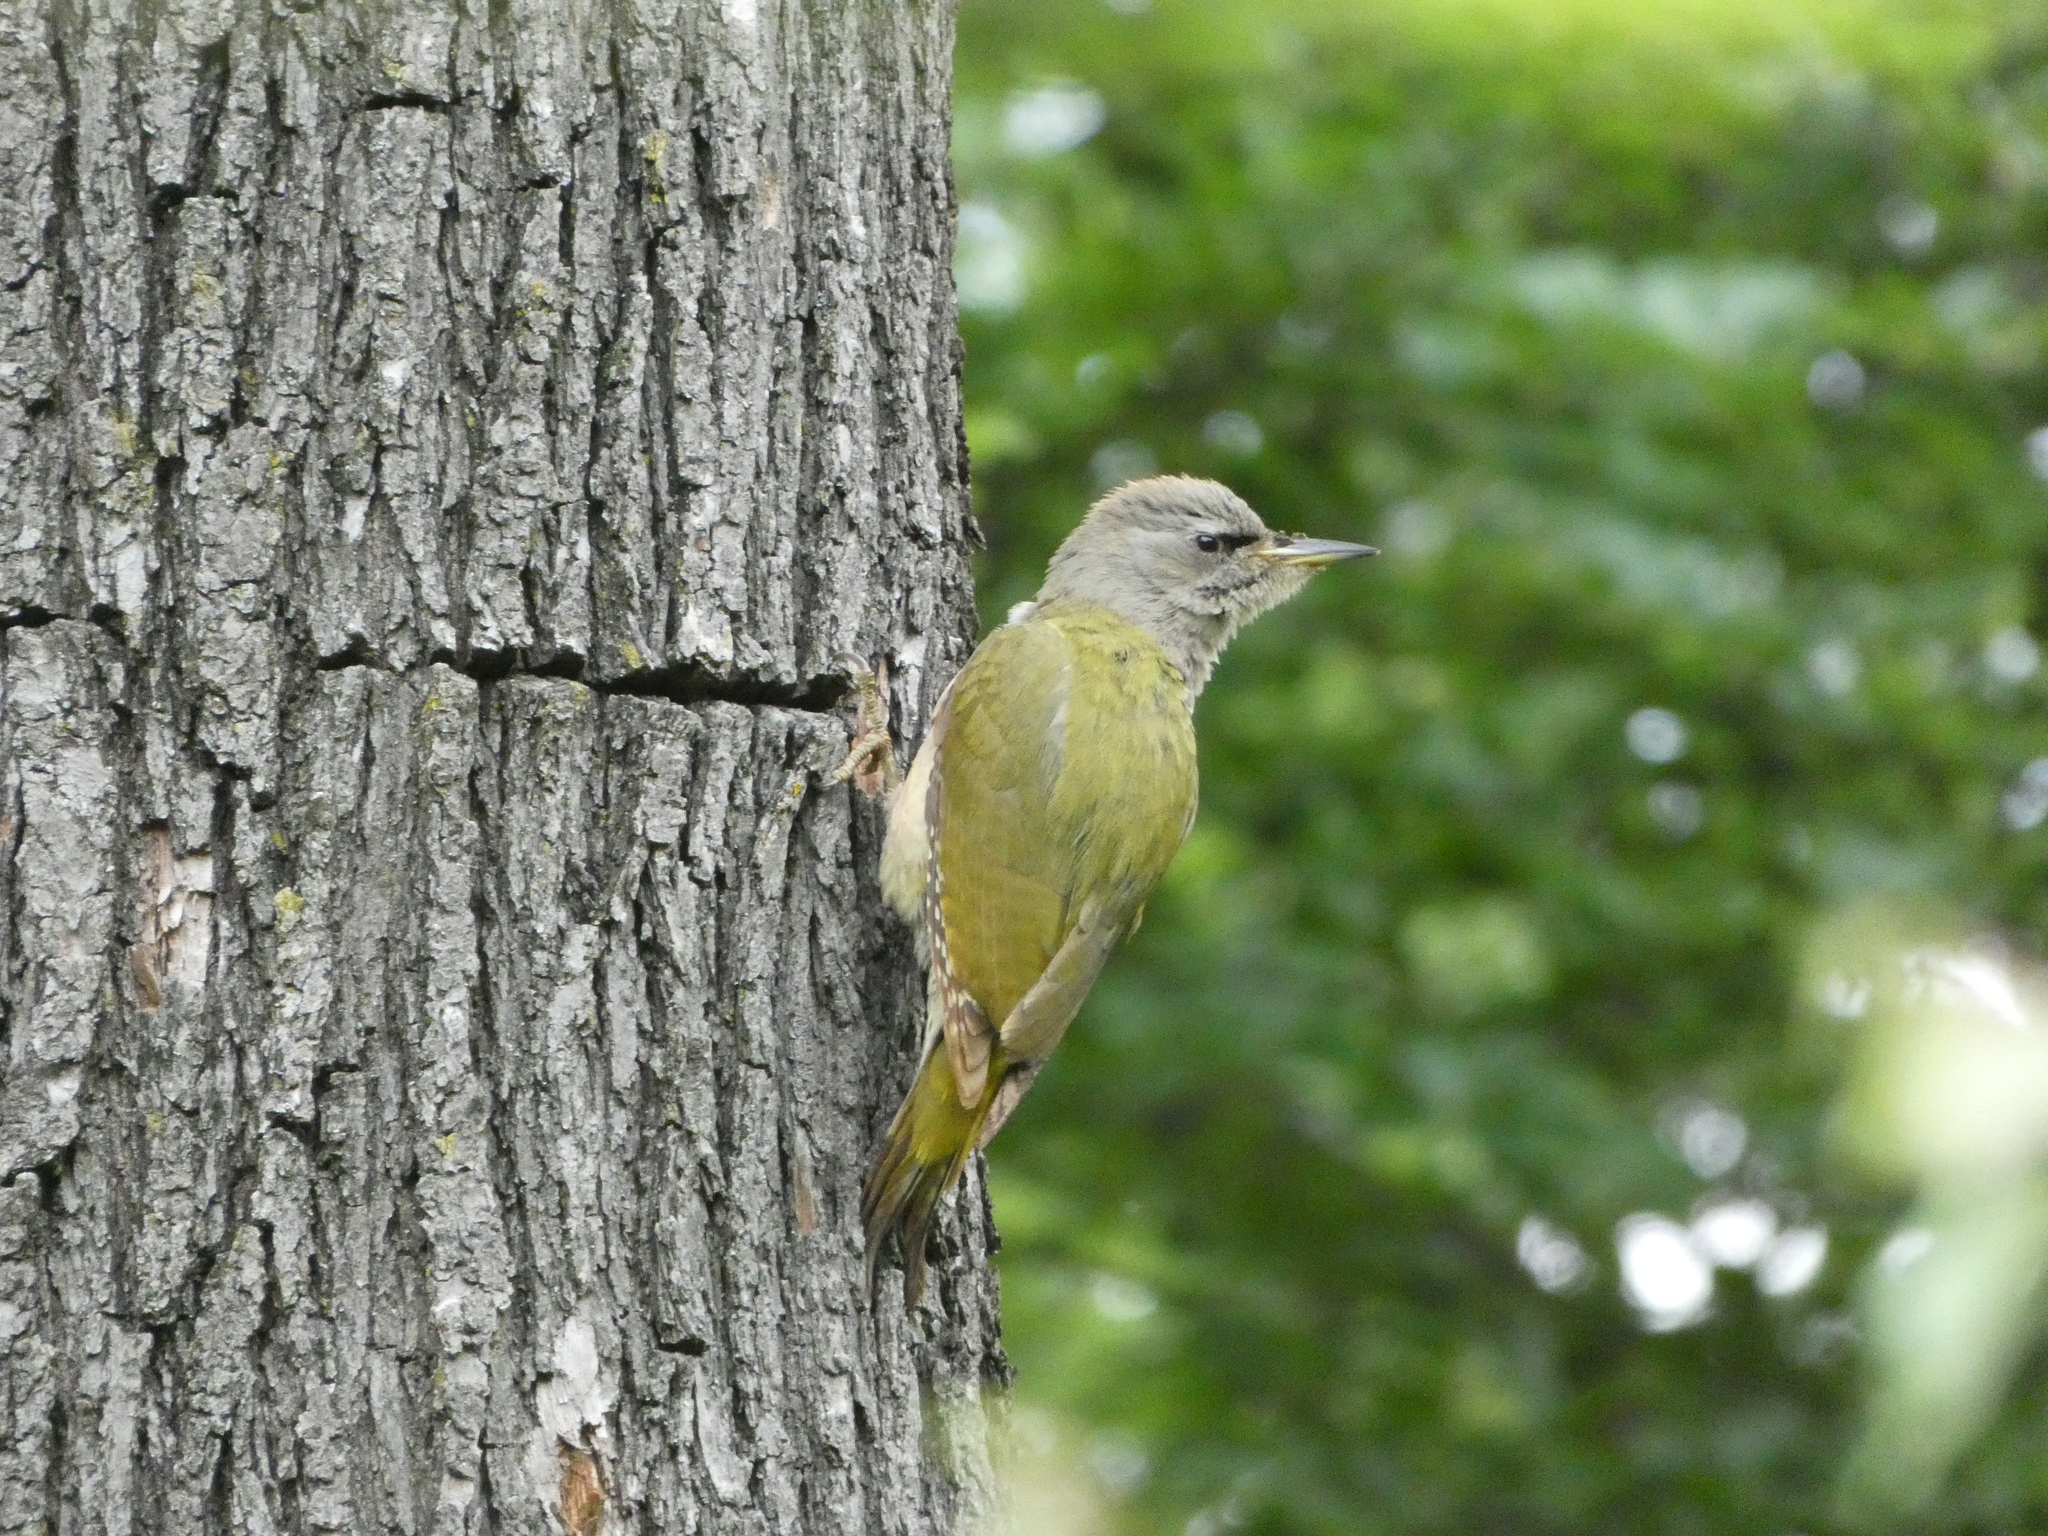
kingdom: Animalia
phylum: Chordata
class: Aves
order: Piciformes
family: Picidae
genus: Picus
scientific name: Picus canus
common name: Grey-headed woodpecker
